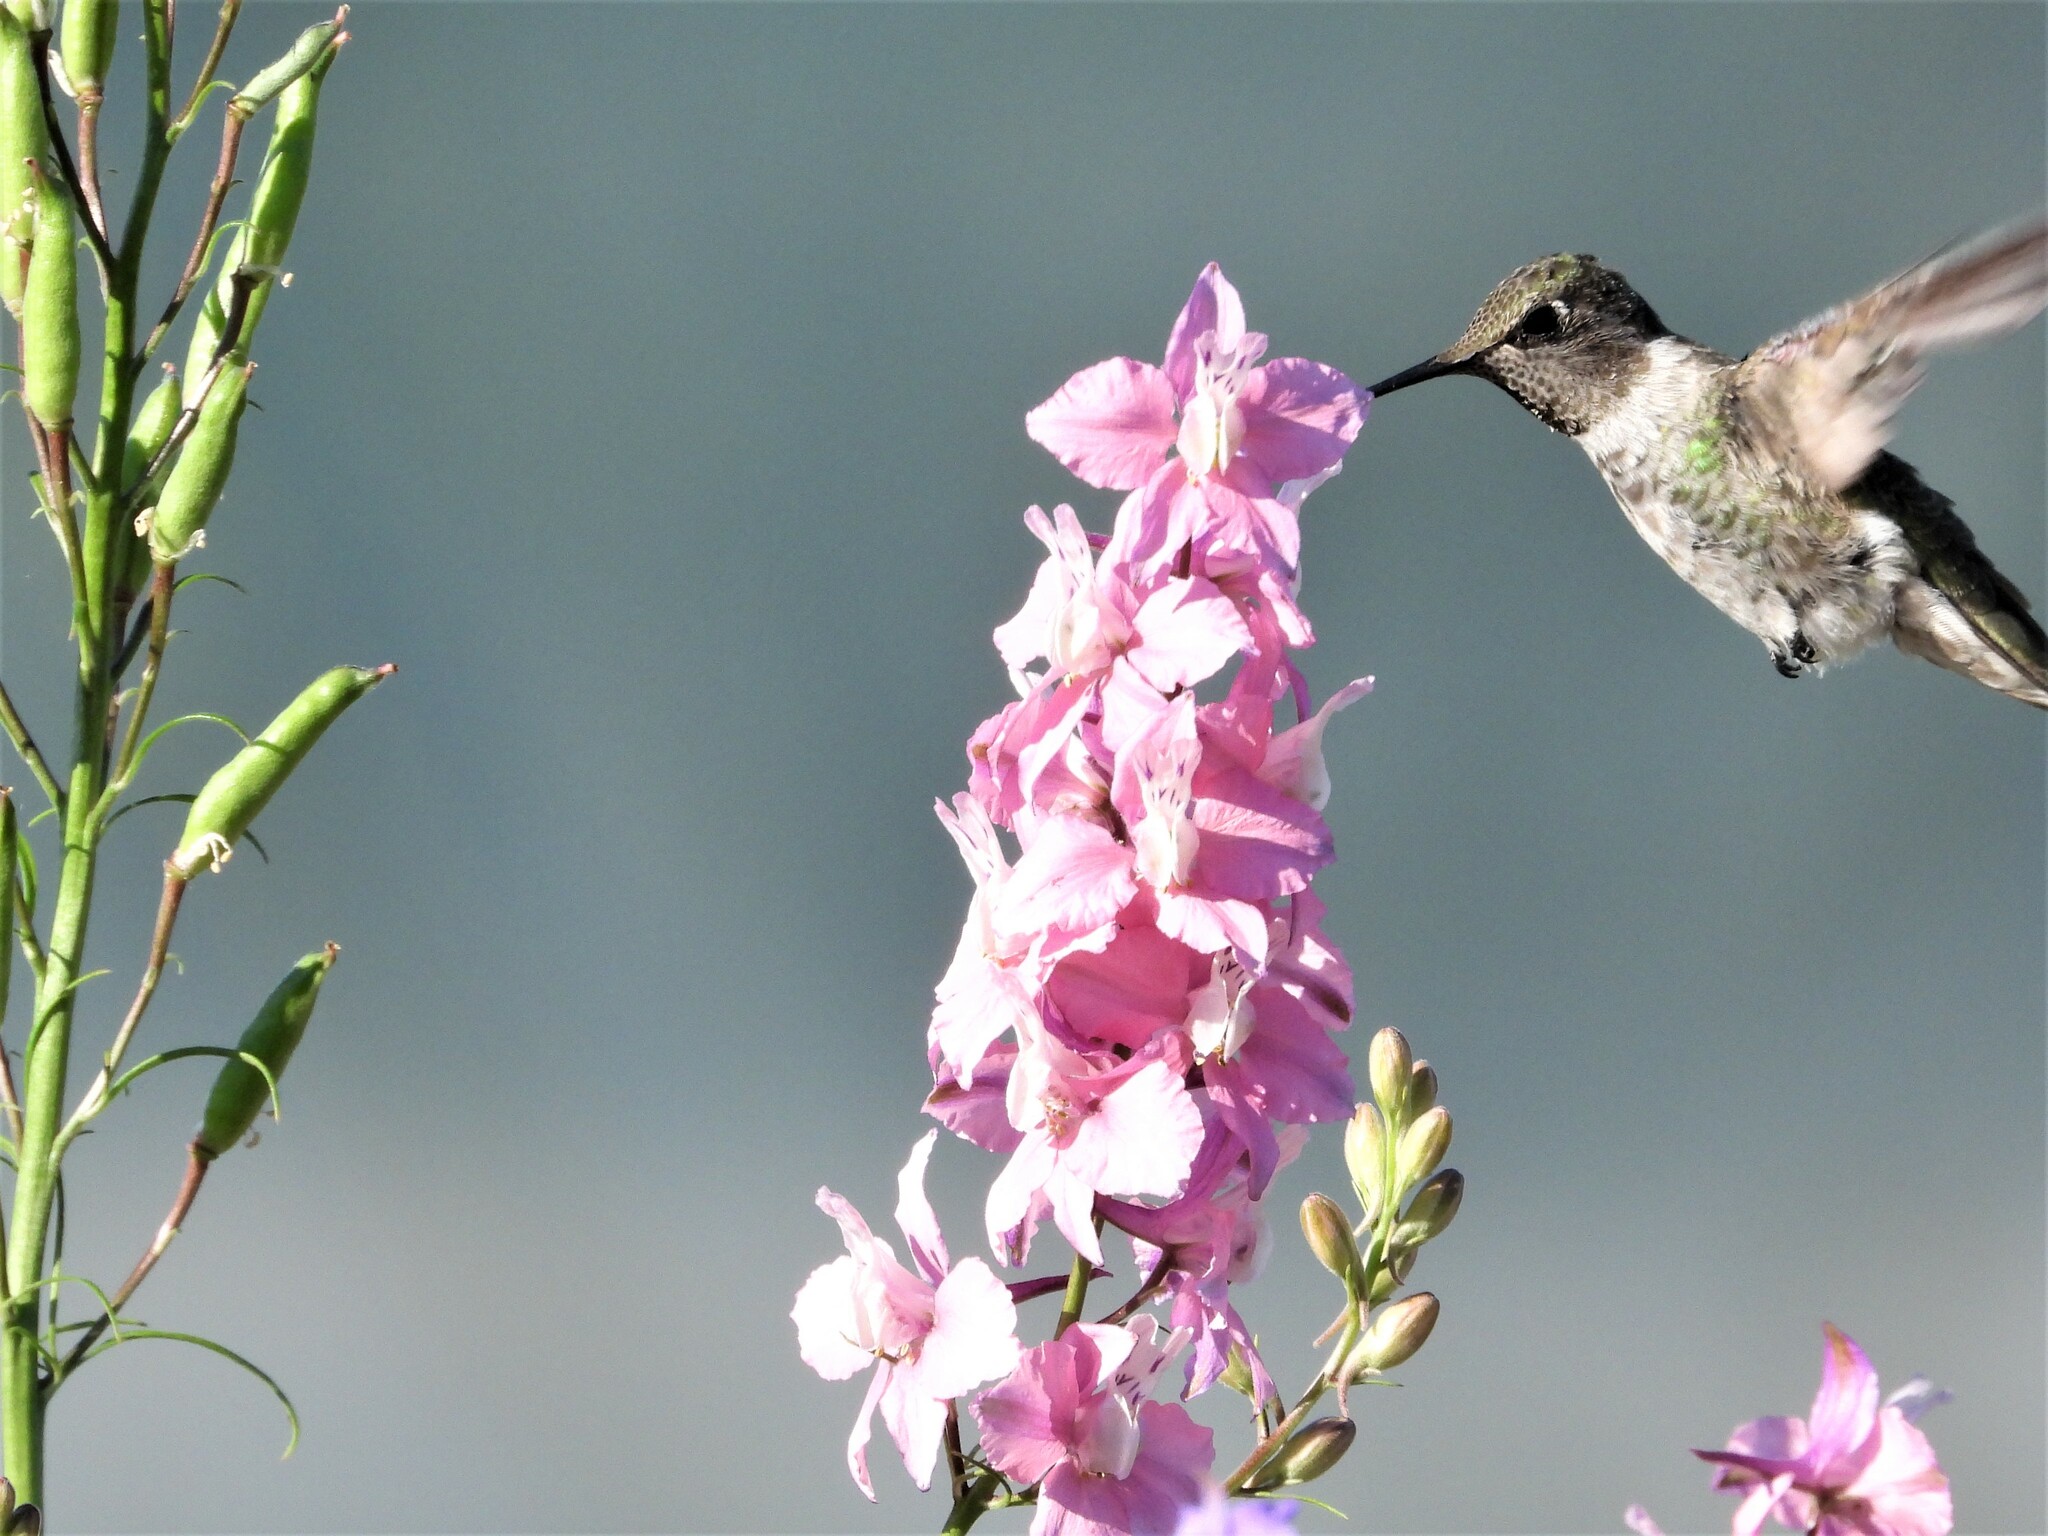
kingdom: Animalia
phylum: Chordata
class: Aves
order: Apodiformes
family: Trochilidae
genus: Calypte
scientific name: Calypte anna
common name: Anna's hummingbird
